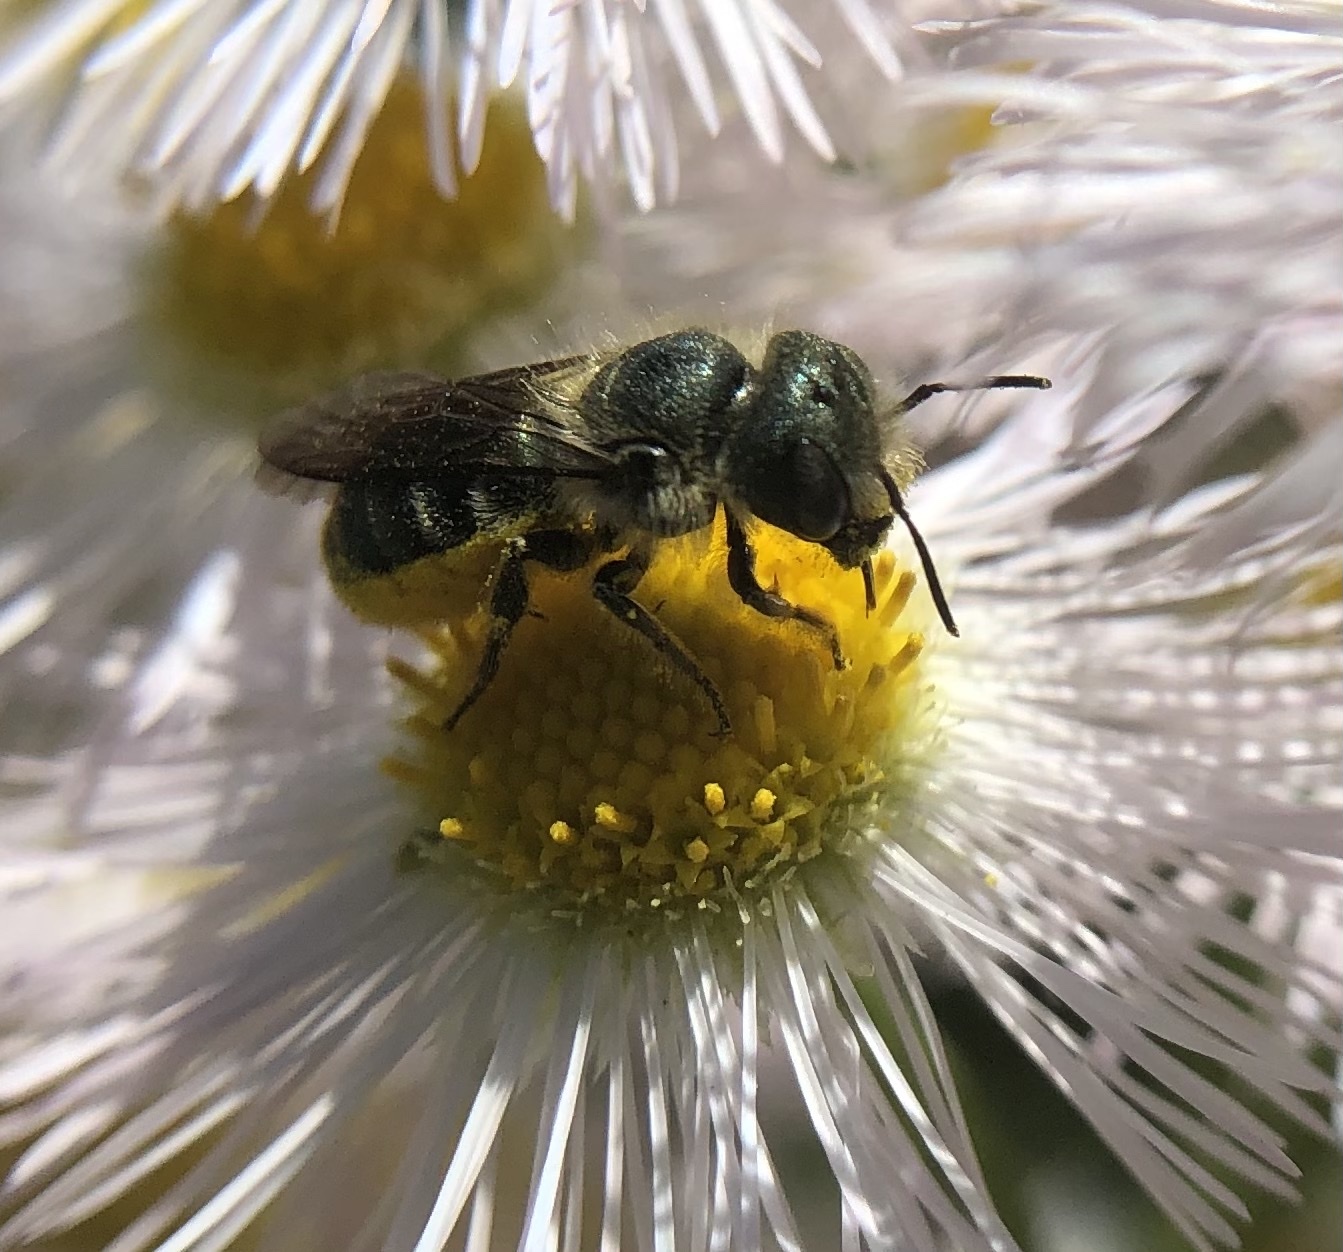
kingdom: Animalia
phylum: Arthropoda
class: Insecta
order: Hymenoptera
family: Megachilidae
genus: Osmia
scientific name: Osmia georgica
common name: Georgia mason
